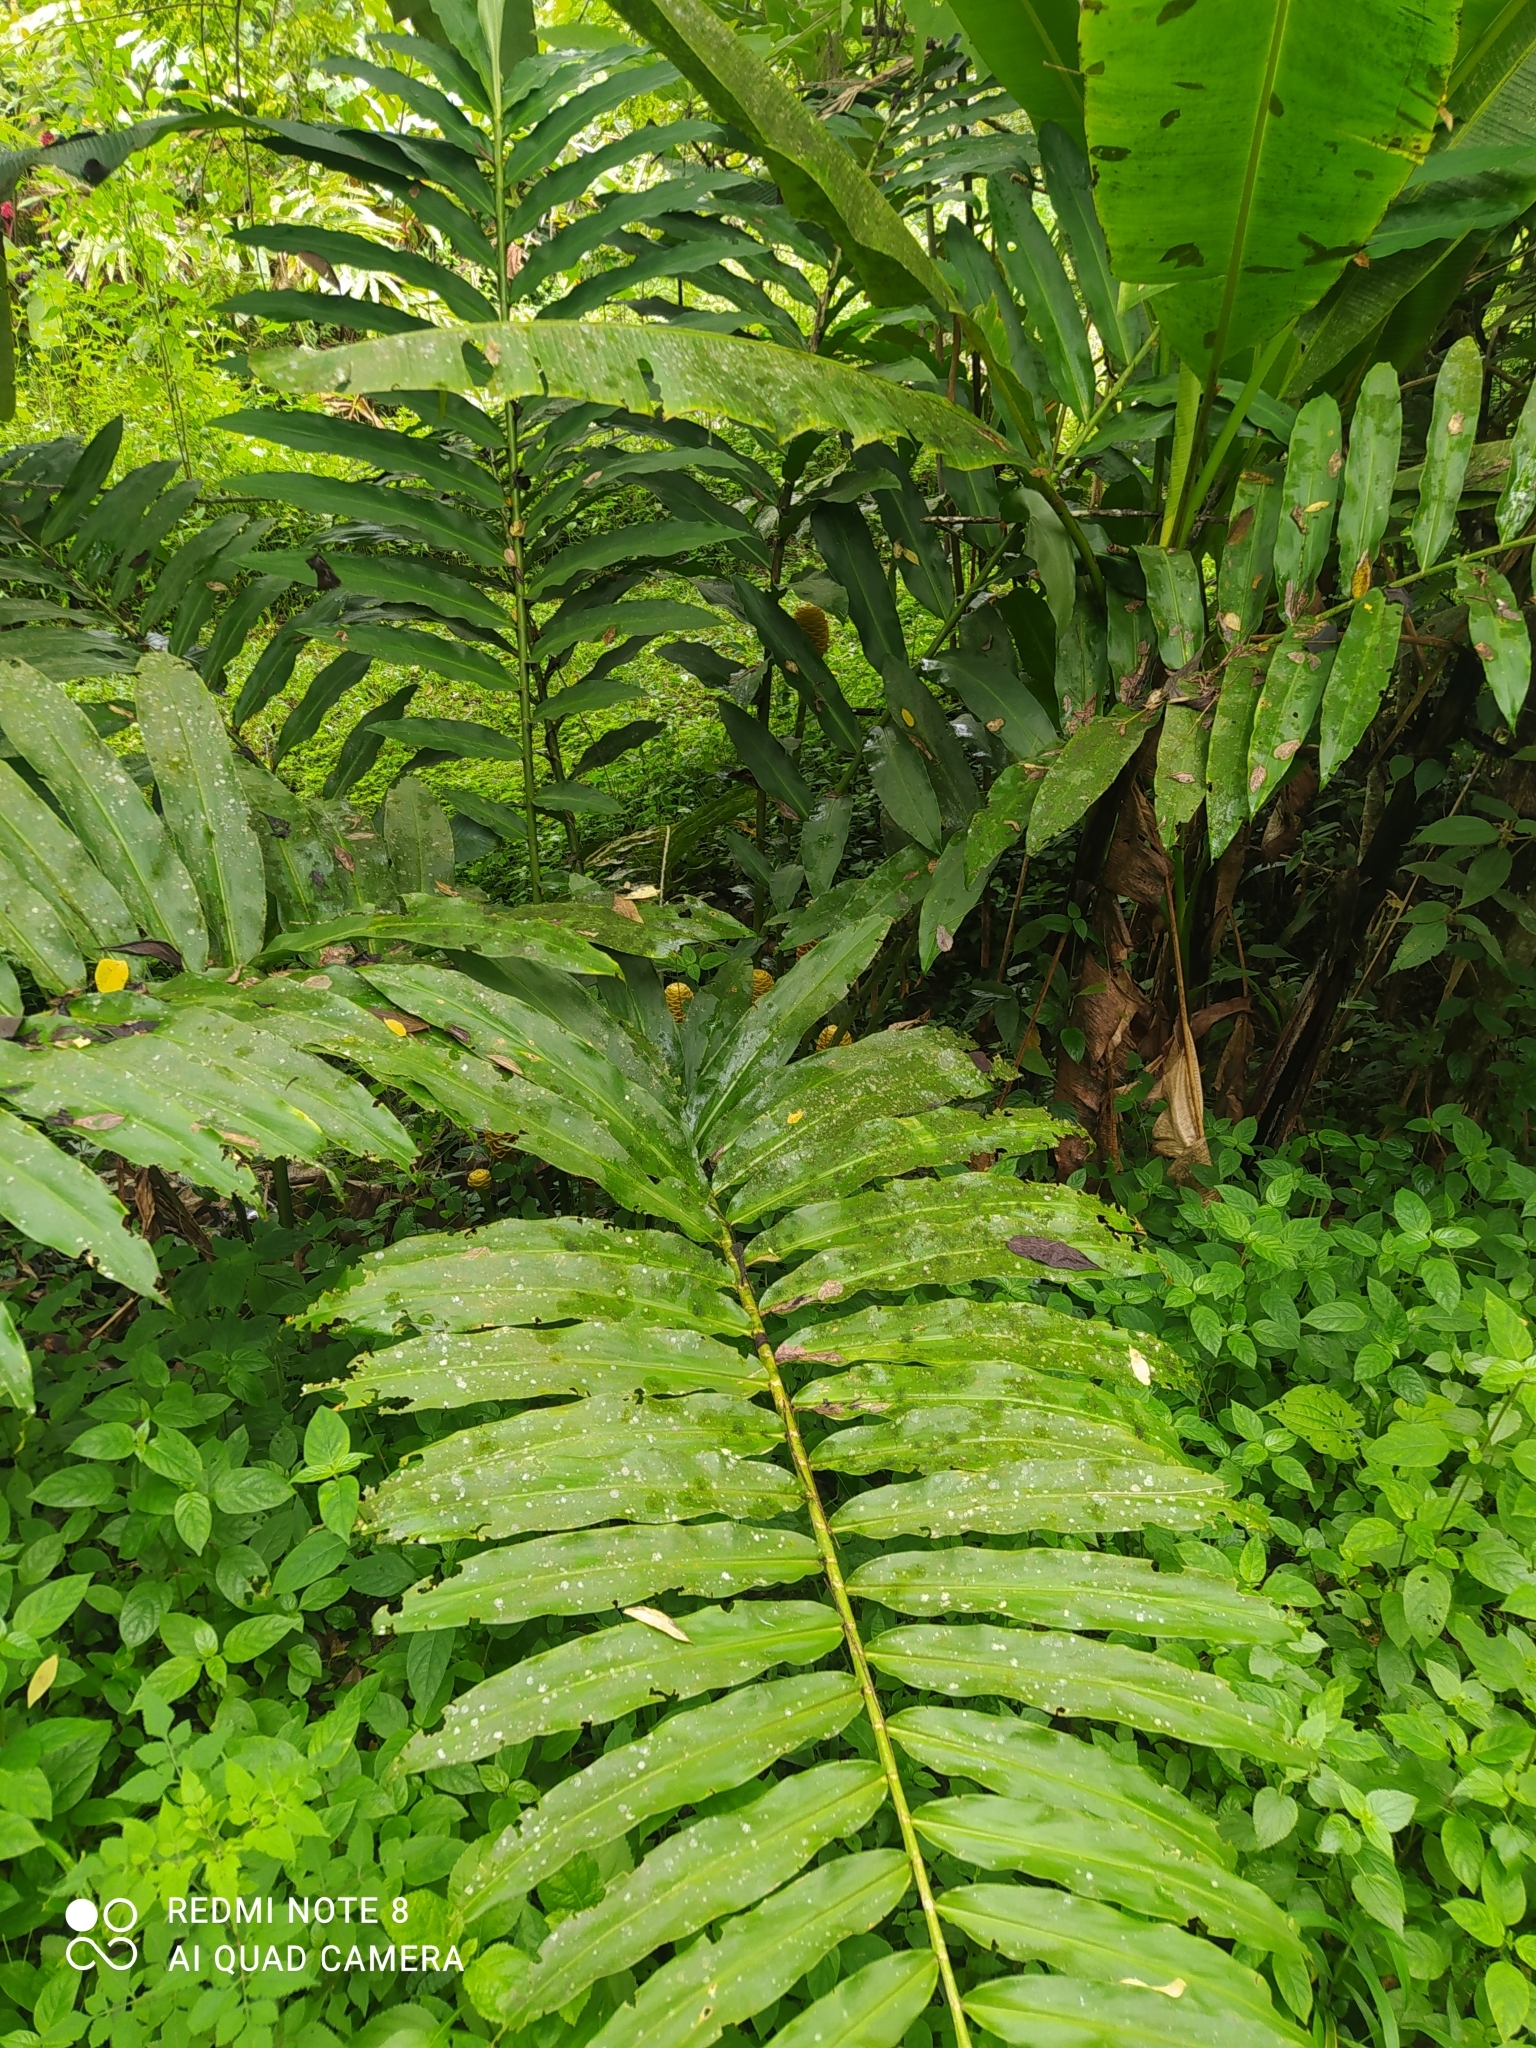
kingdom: Plantae
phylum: Tracheophyta
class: Liliopsida
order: Zingiberales
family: Zingiberaceae
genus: Zingiber
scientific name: Zingiber spectabile
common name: Beehive ginger
